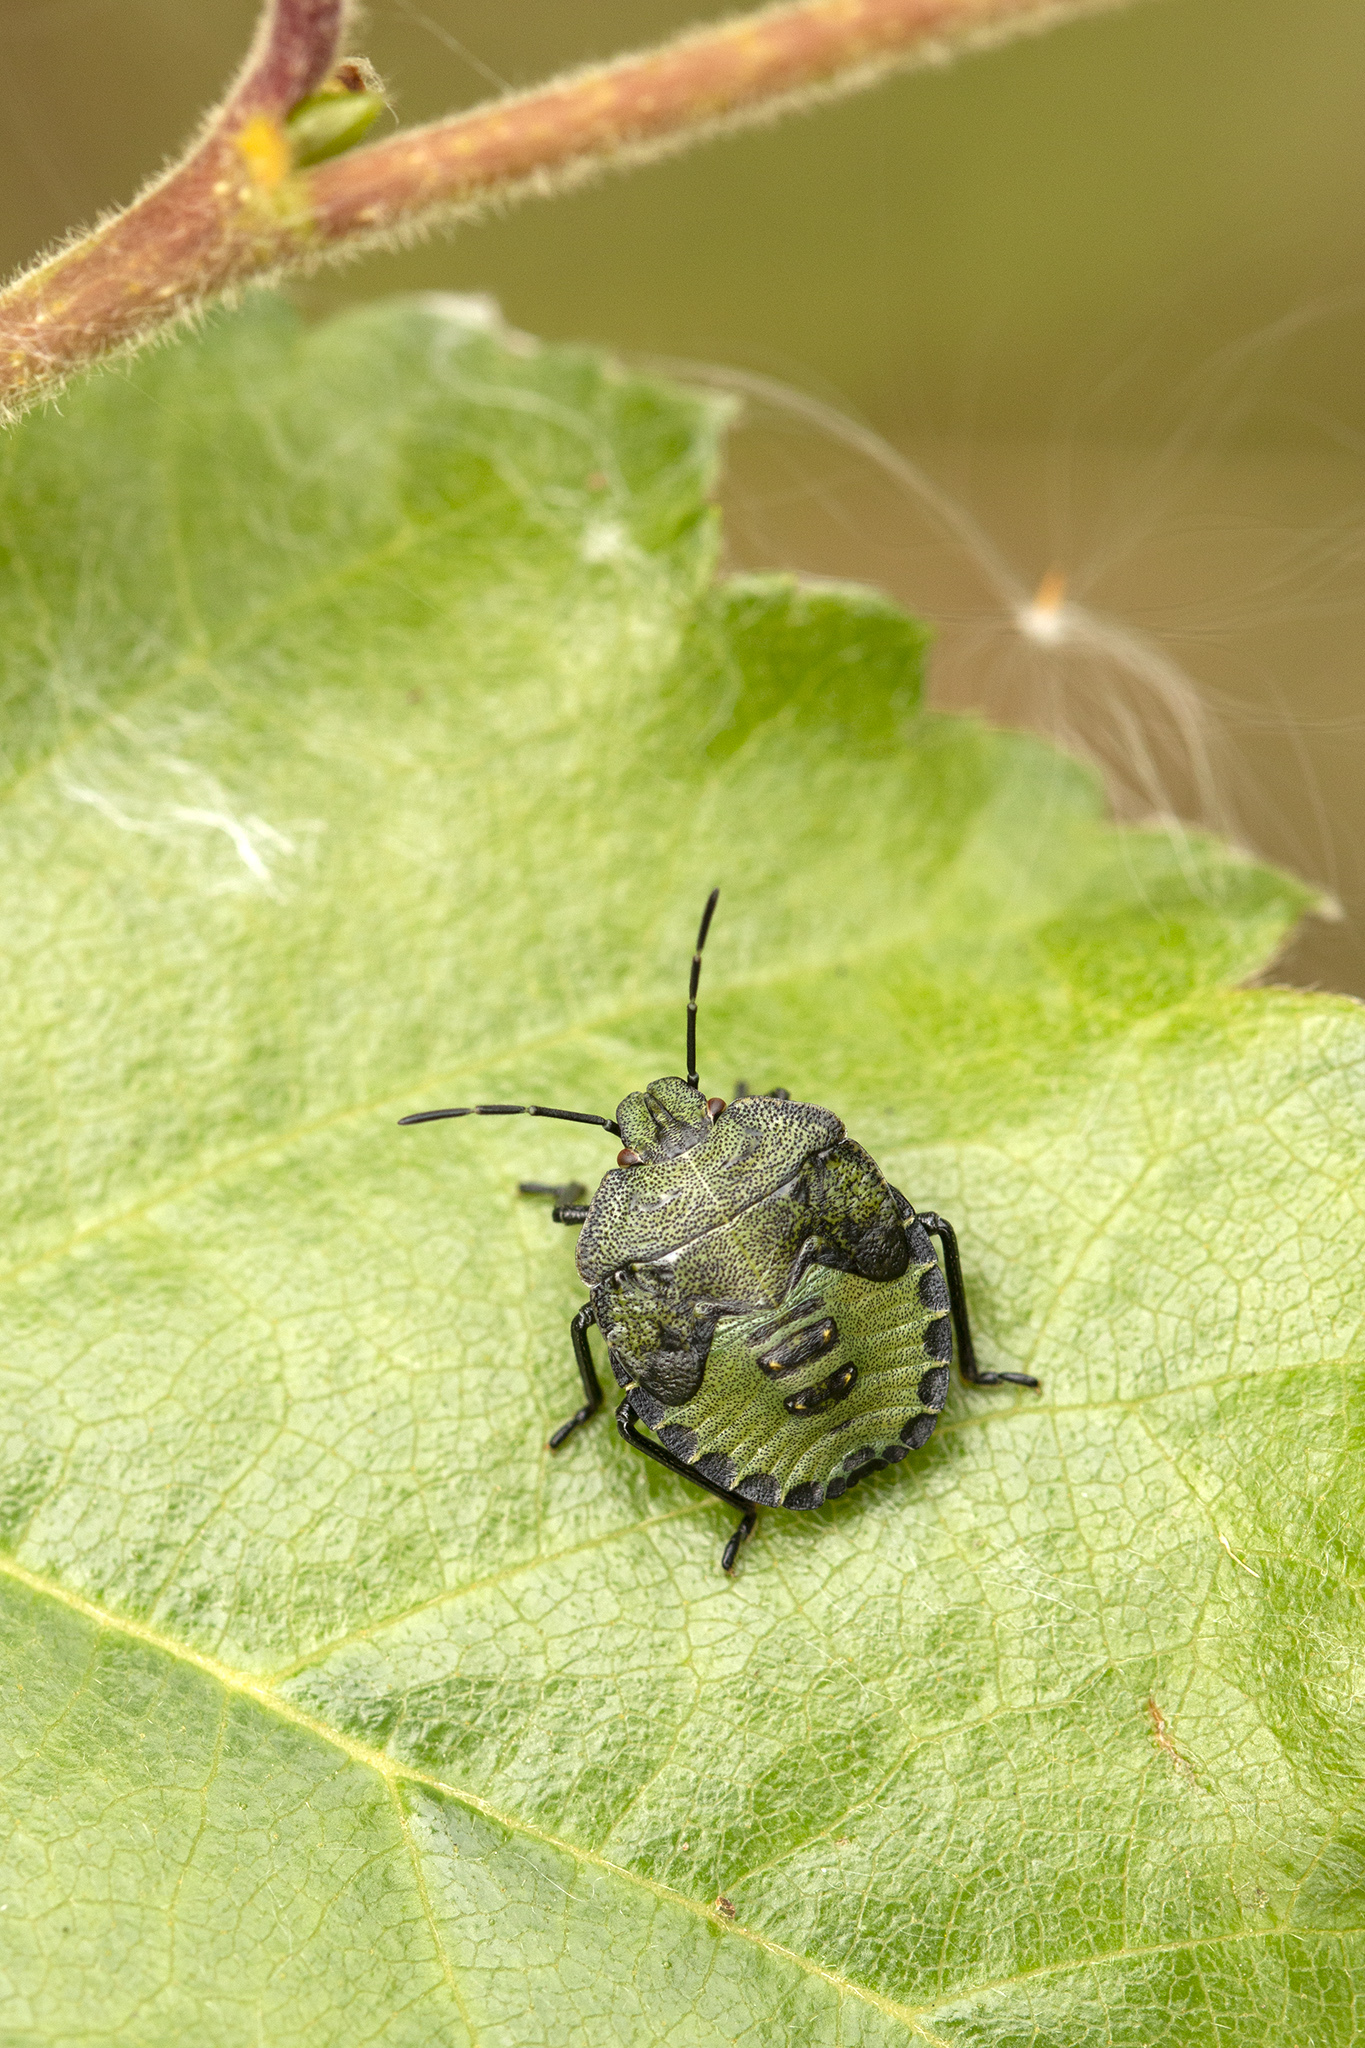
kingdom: Animalia
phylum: Arthropoda
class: Insecta
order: Hemiptera
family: Pentatomidae
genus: Palomena
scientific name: Palomena prasina
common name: Green shieldbug
